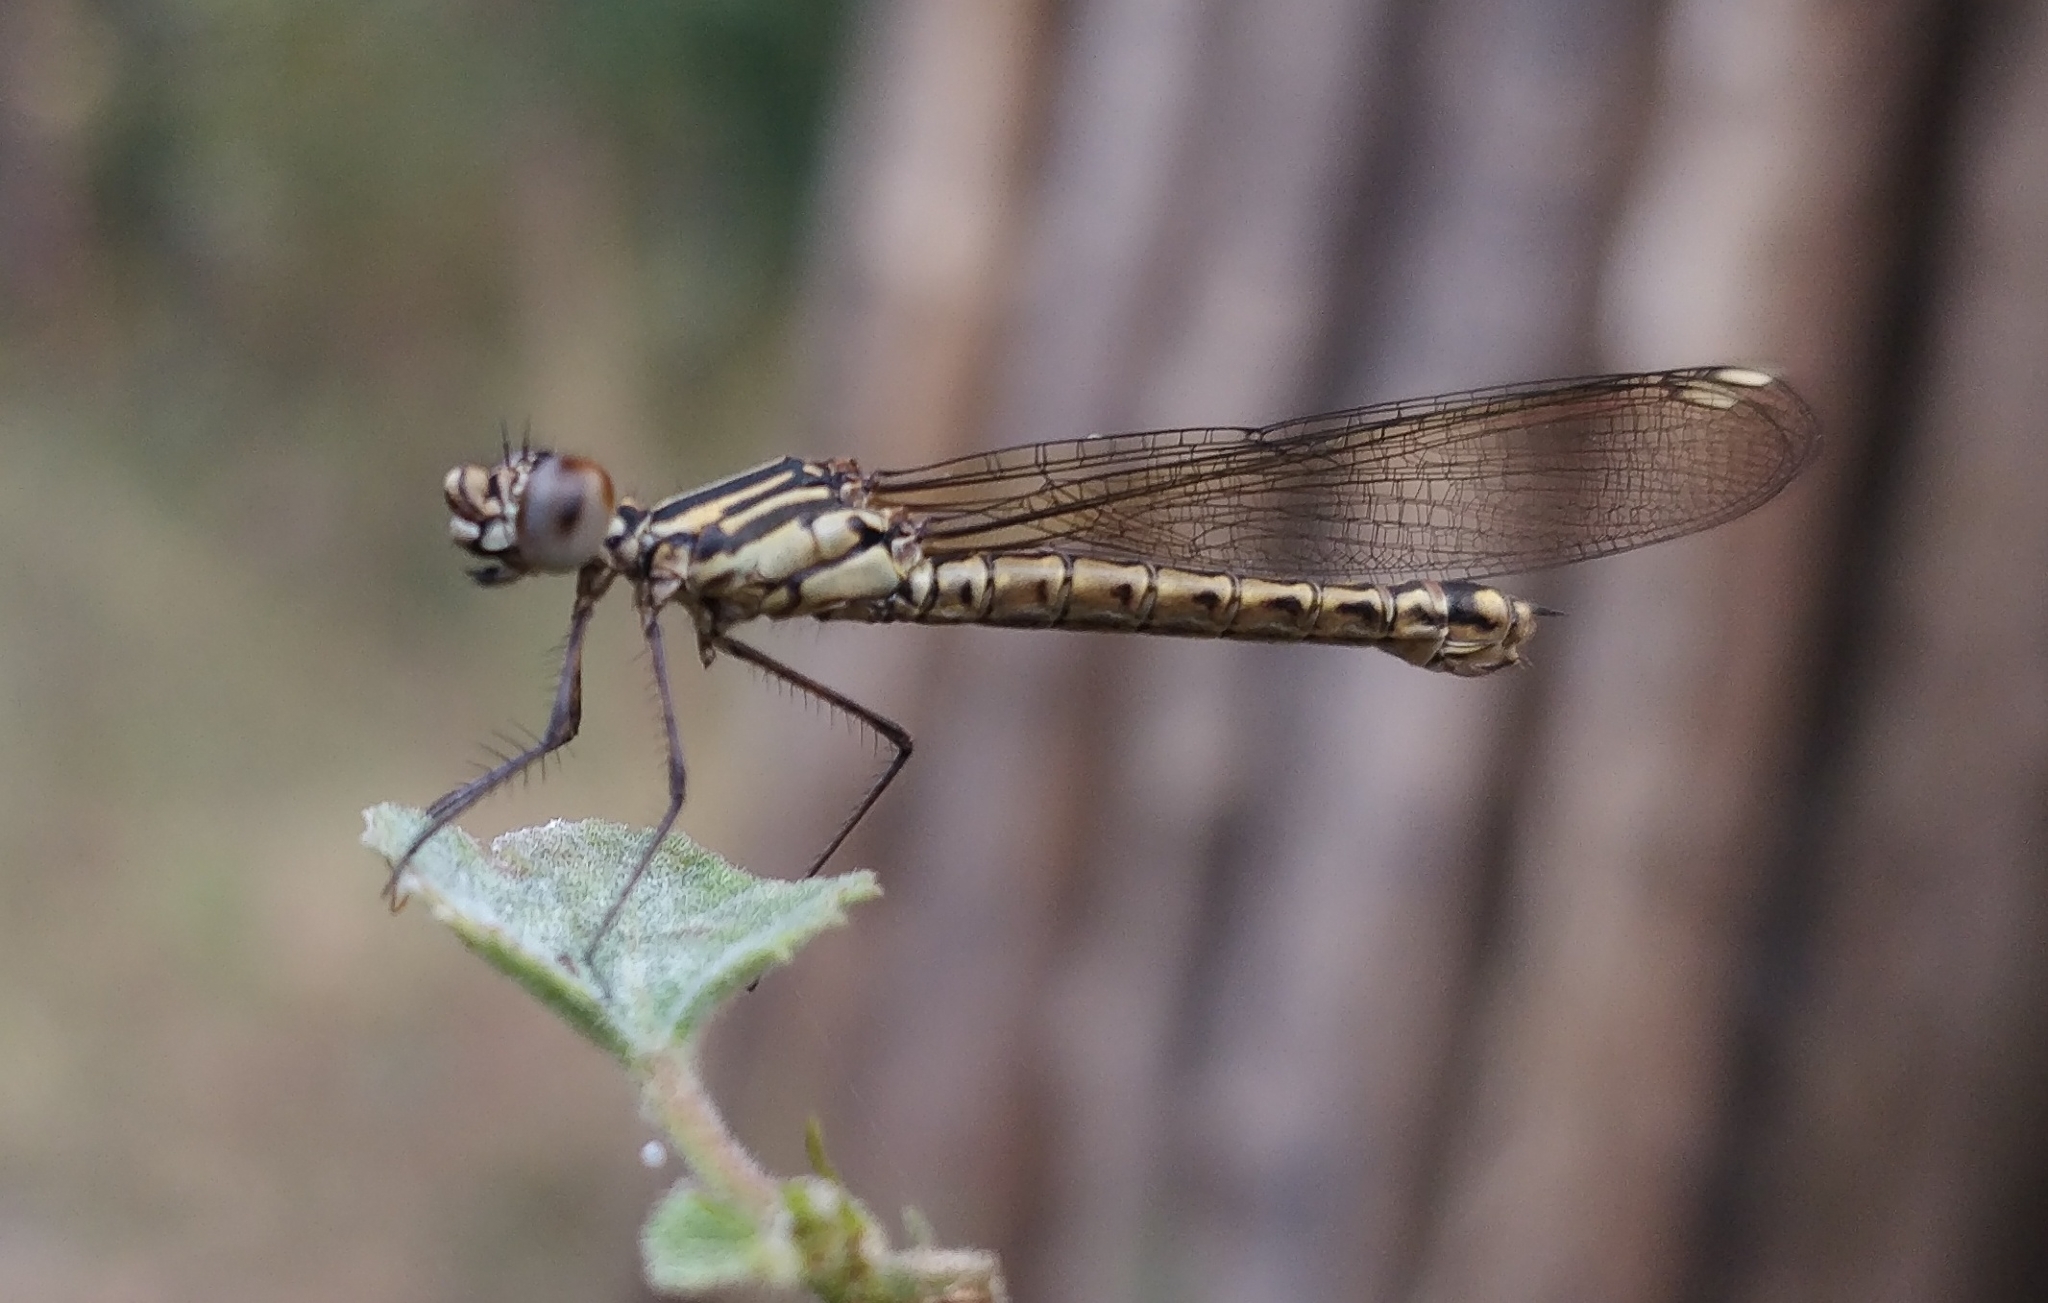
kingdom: Animalia
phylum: Arthropoda
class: Insecta
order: Odonata
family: Chlorocyphidae
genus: Libellago
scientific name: Libellago lineata
